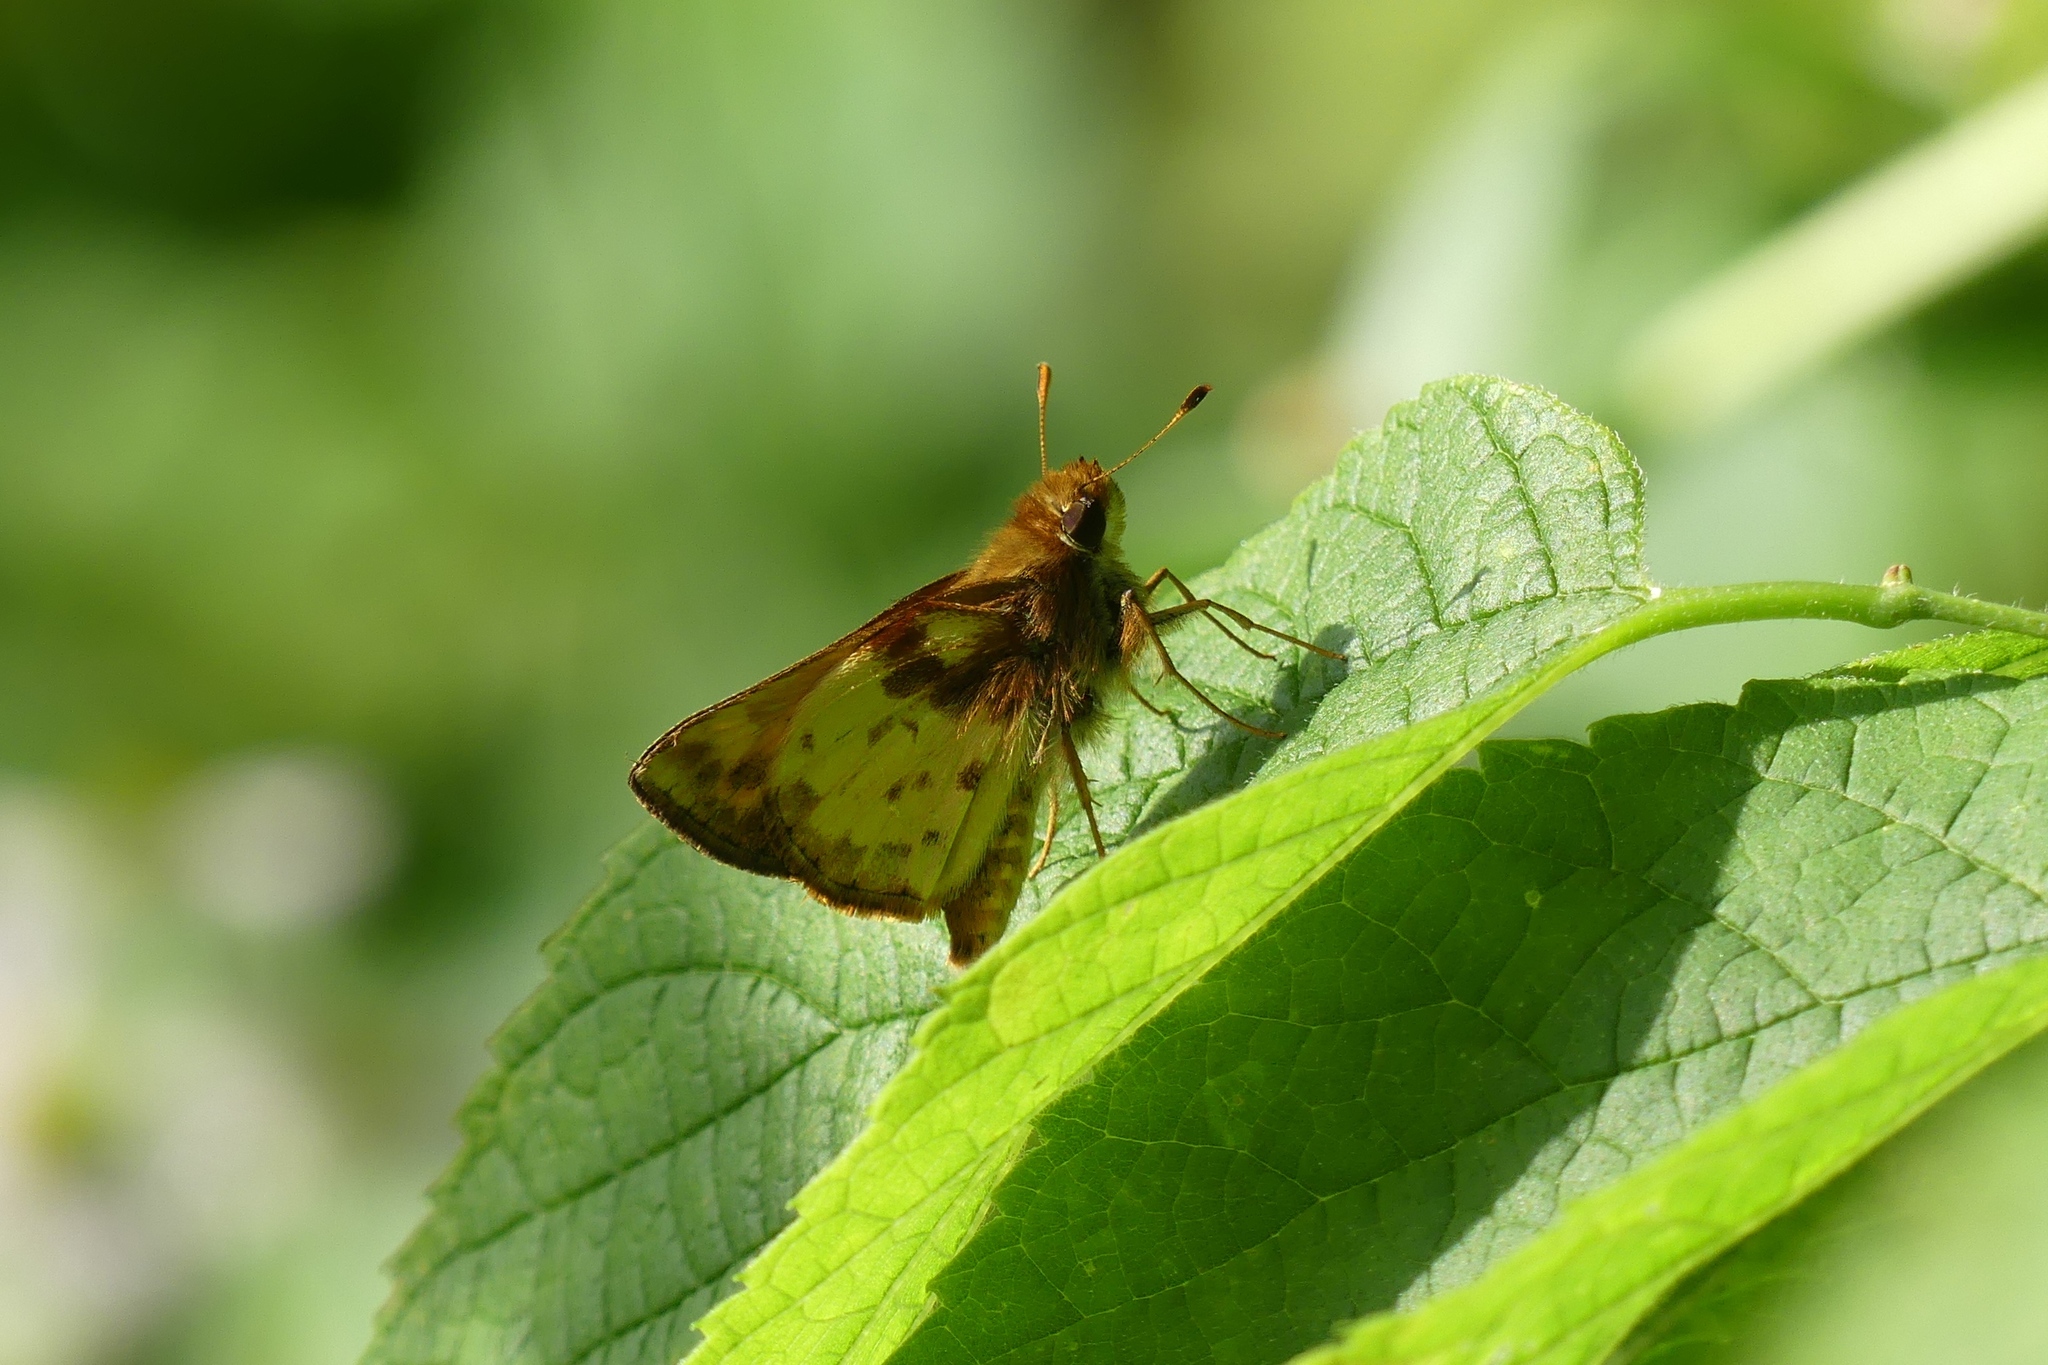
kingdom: Animalia
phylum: Arthropoda
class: Insecta
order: Lepidoptera
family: Hesperiidae
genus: Lon
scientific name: Lon zabulon
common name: Zabulon skipper
